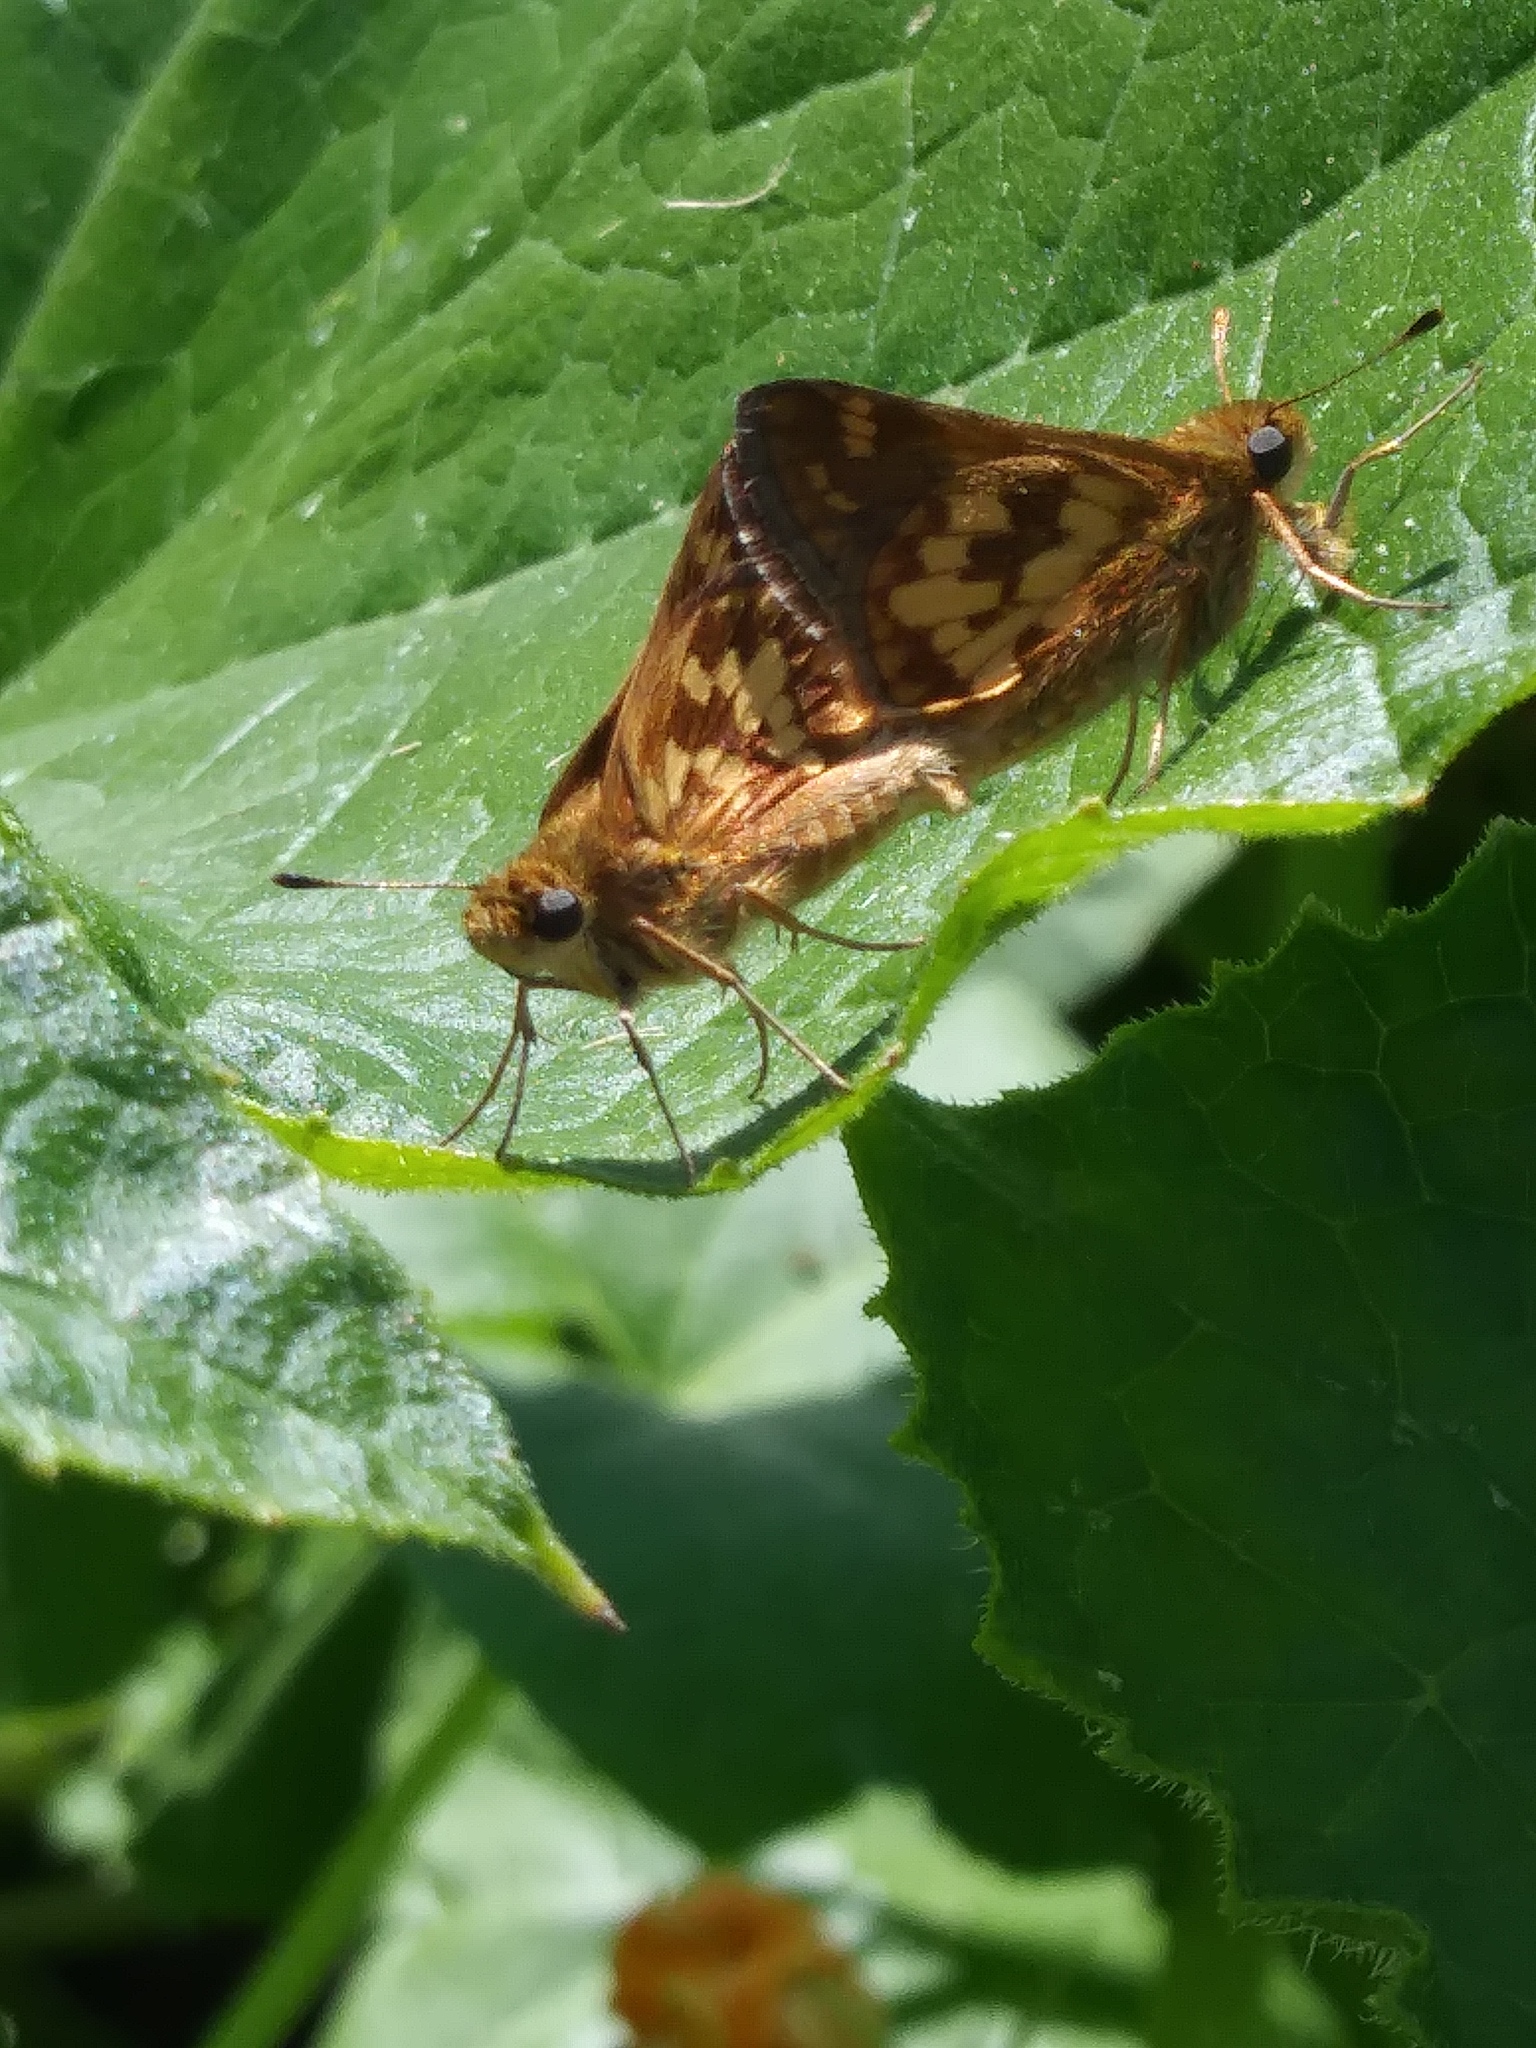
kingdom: Animalia
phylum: Arthropoda
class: Insecta
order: Lepidoptera
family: Hesperiidae
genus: Polites
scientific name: Polites coras
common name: Peck's skipper
